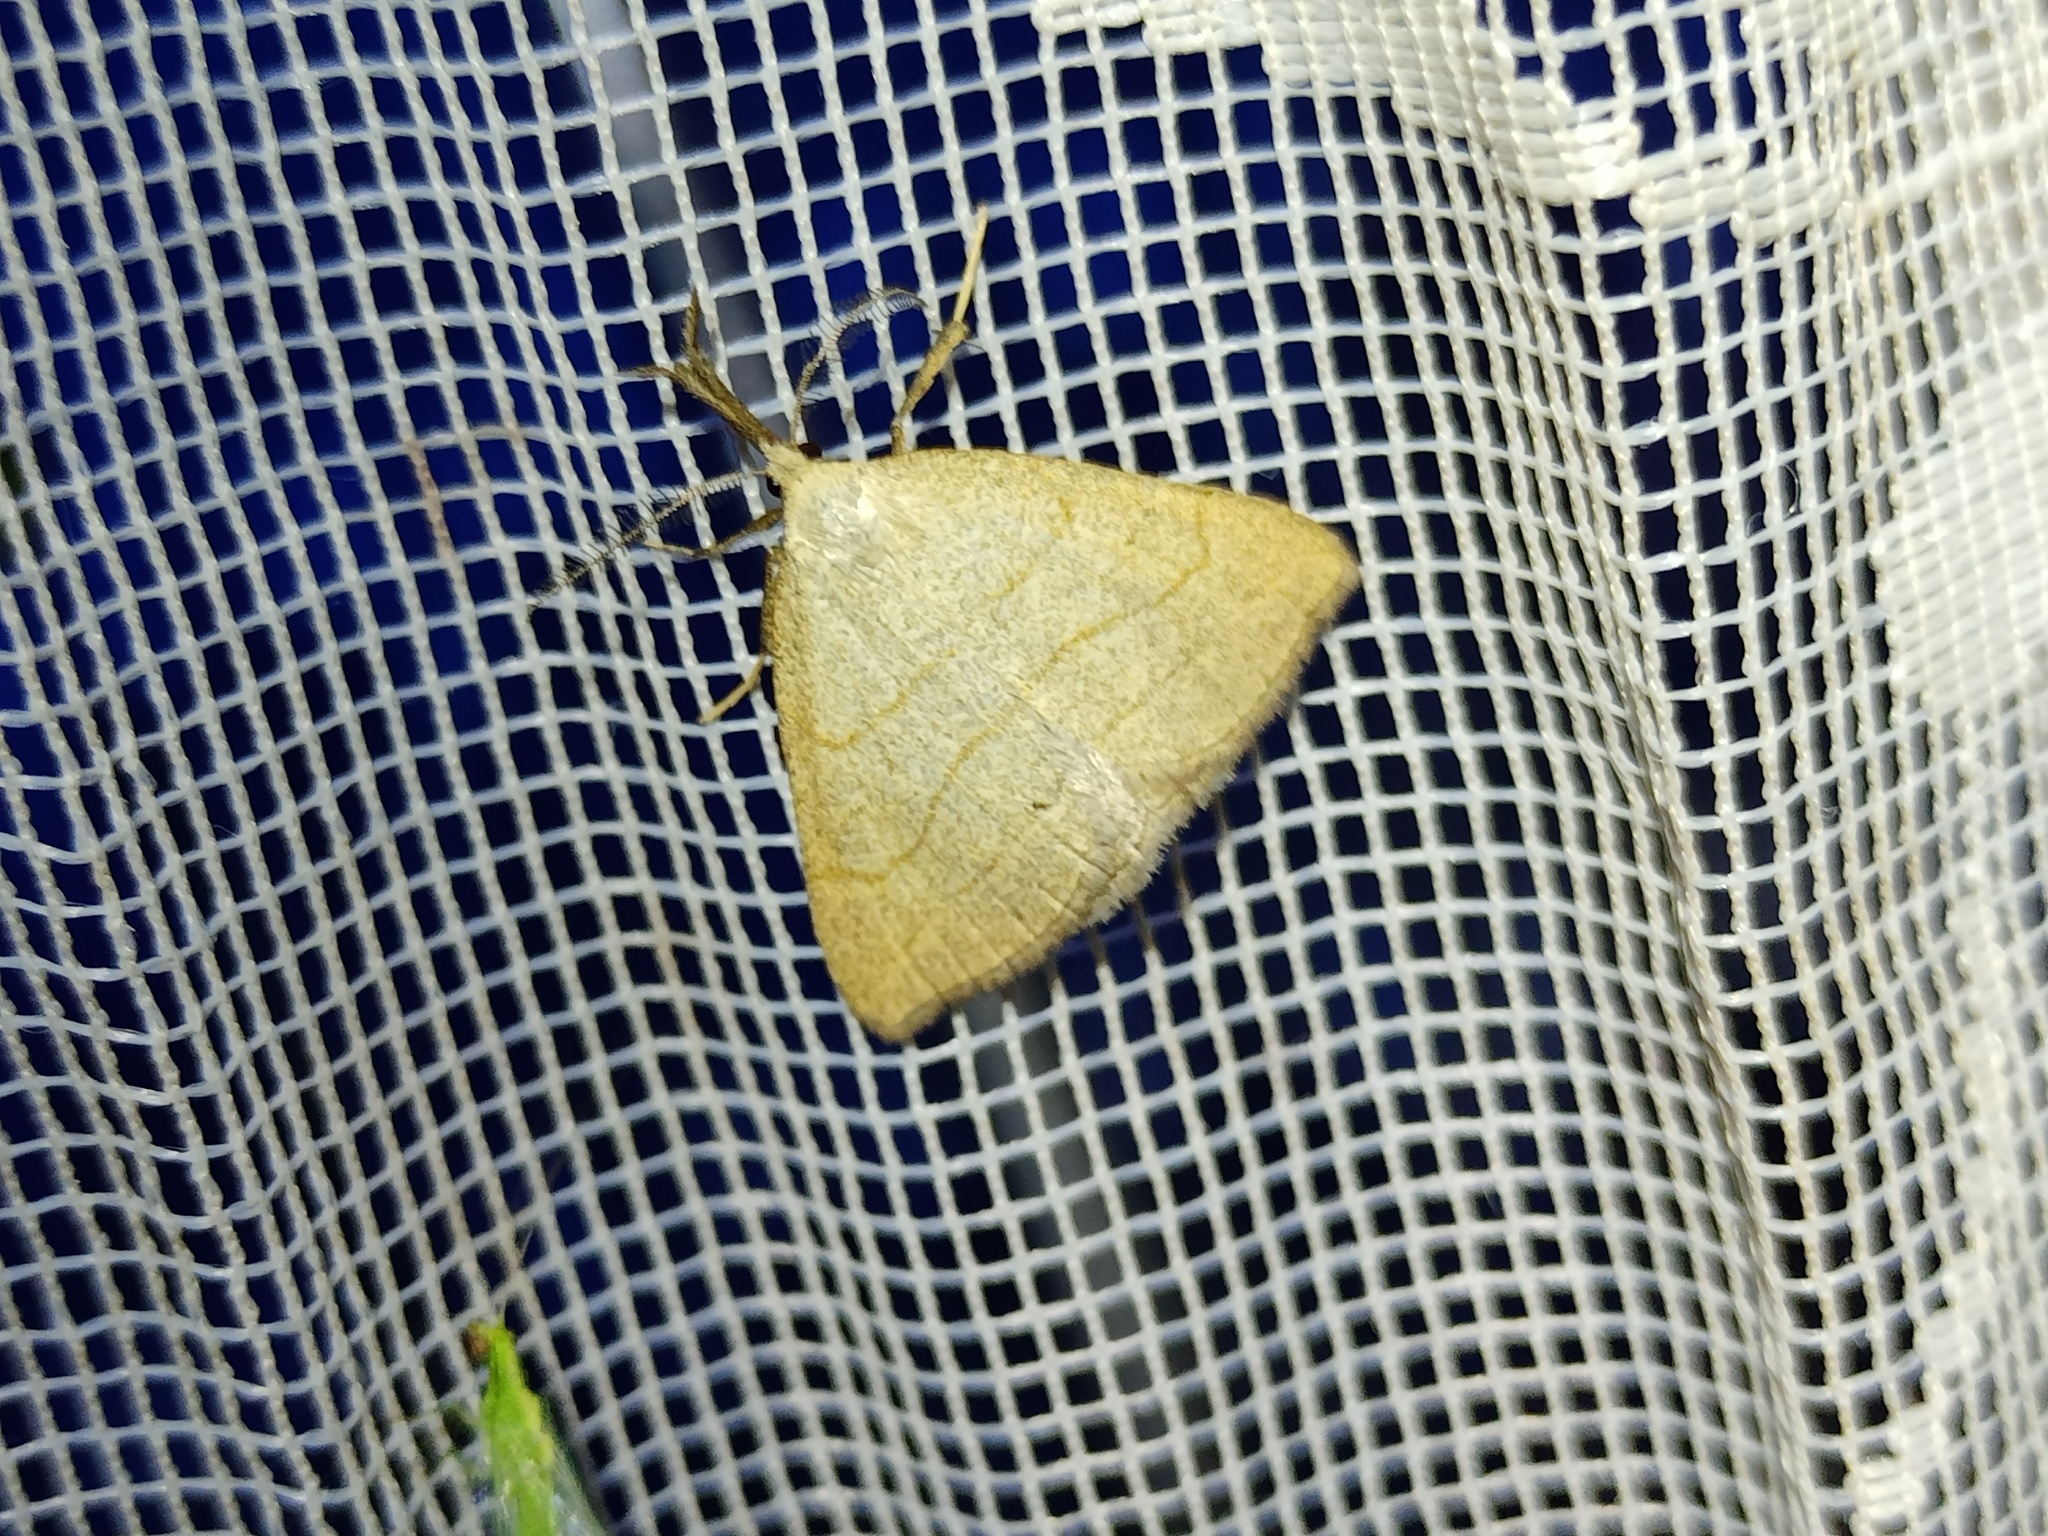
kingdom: Animalia
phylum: Arthropoda
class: Insecta
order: Lepidoptera
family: Erebidae
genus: Polypogon
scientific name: Polypogon tentacularia
